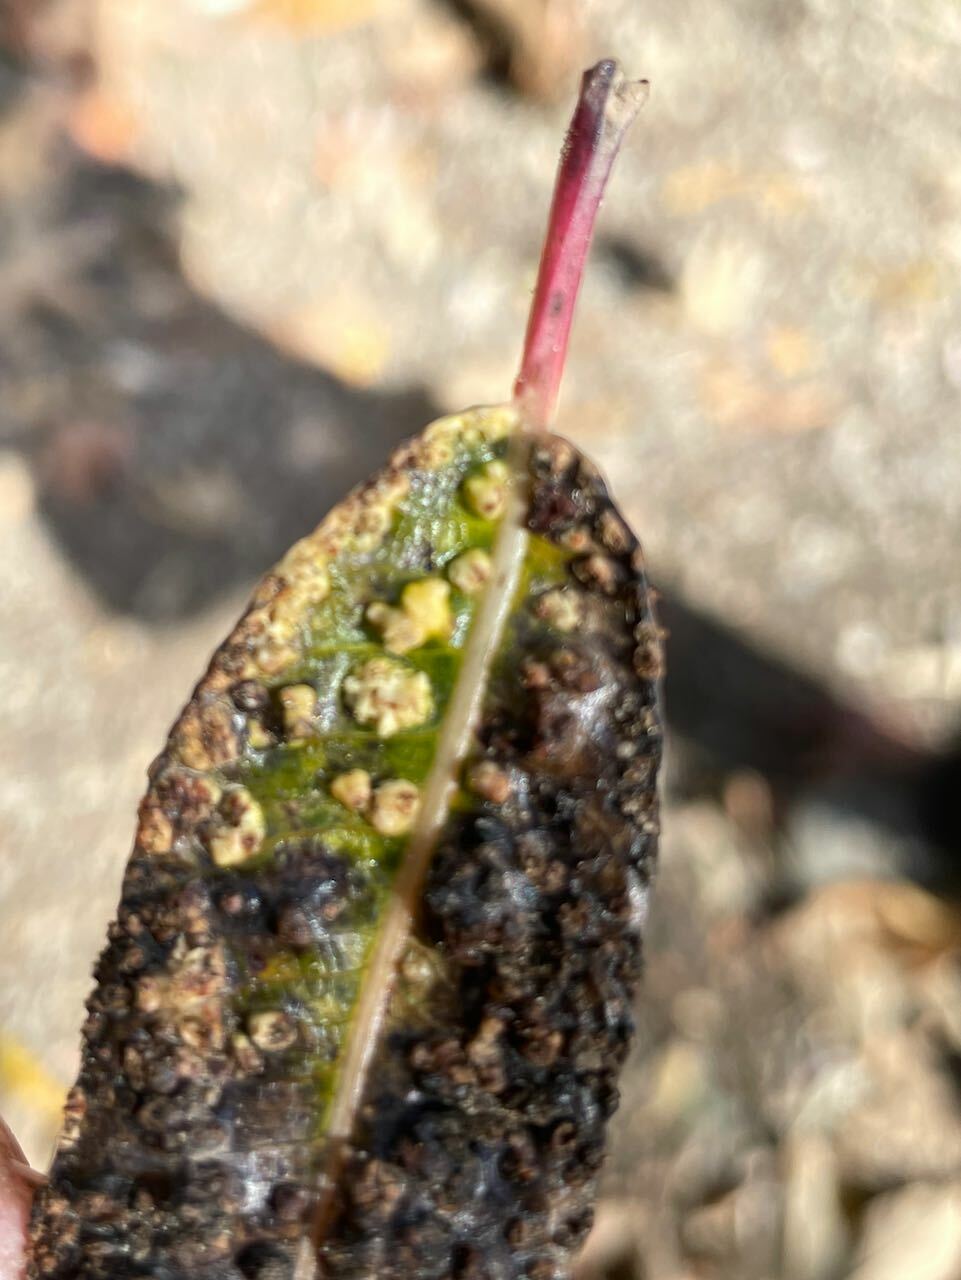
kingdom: Animalia
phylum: Arthropoda
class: Arachnida
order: Trombidiformes
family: Eriophyidae
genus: Aculus
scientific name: Aculus tetanothrix
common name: Willow bead gall mite
